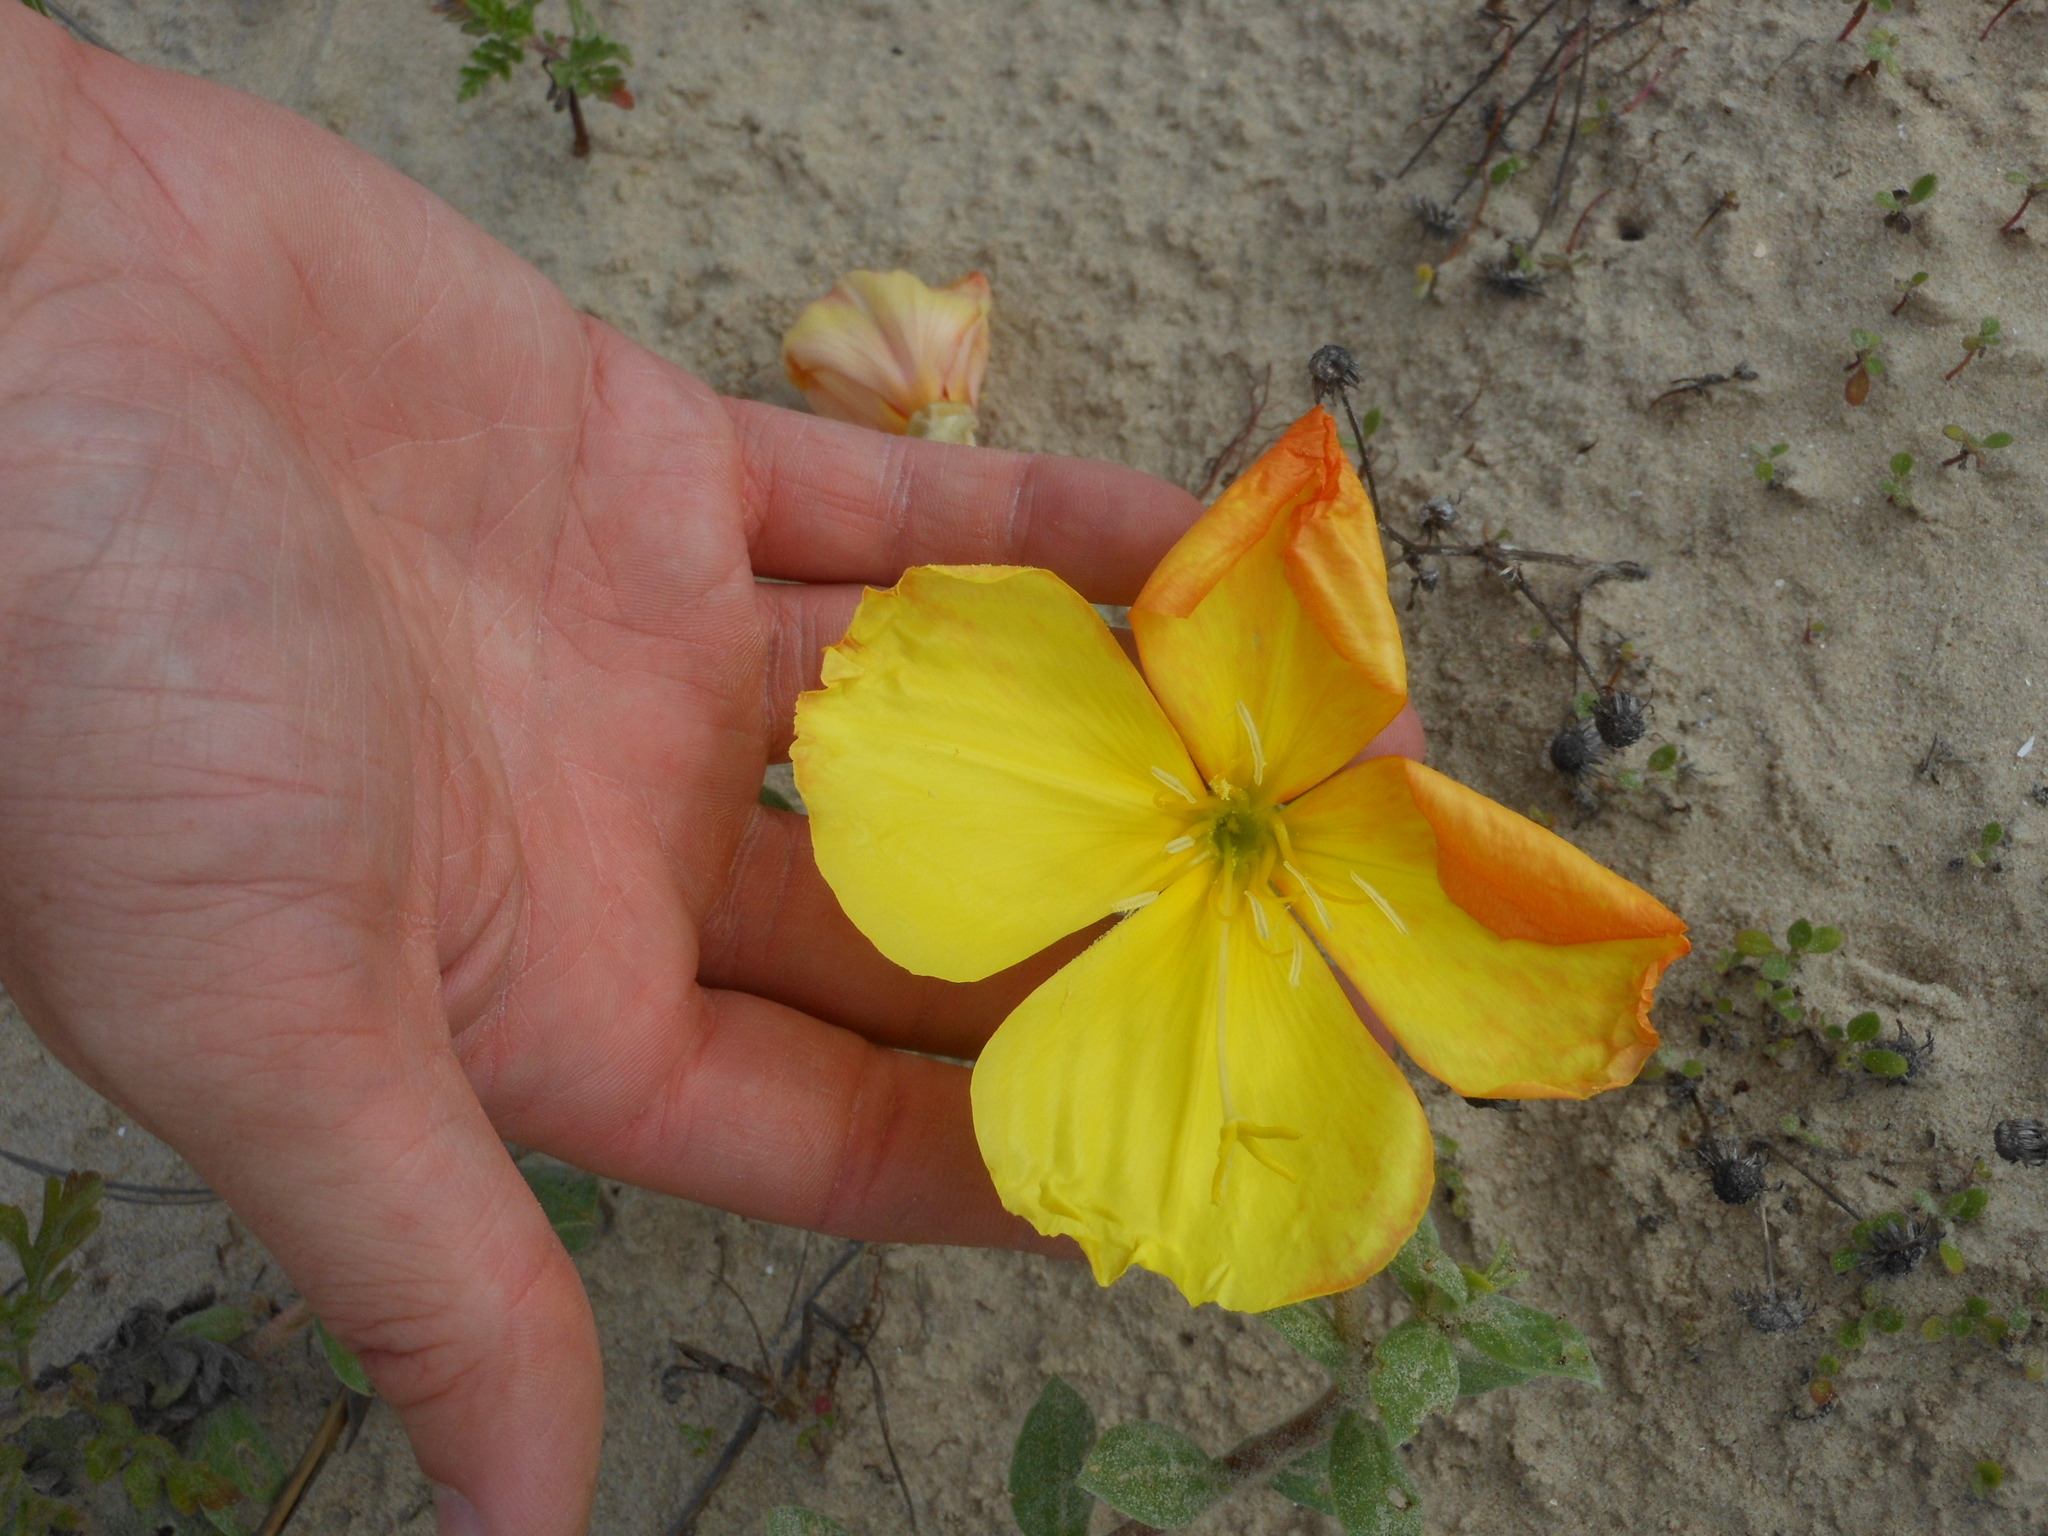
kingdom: Plantae
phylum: Tracheophyta
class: Magnoliopsida
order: Myrtales
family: Onagraceae
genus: Oenothera
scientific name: Oenothera drummondii
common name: Beach evening-primrose
